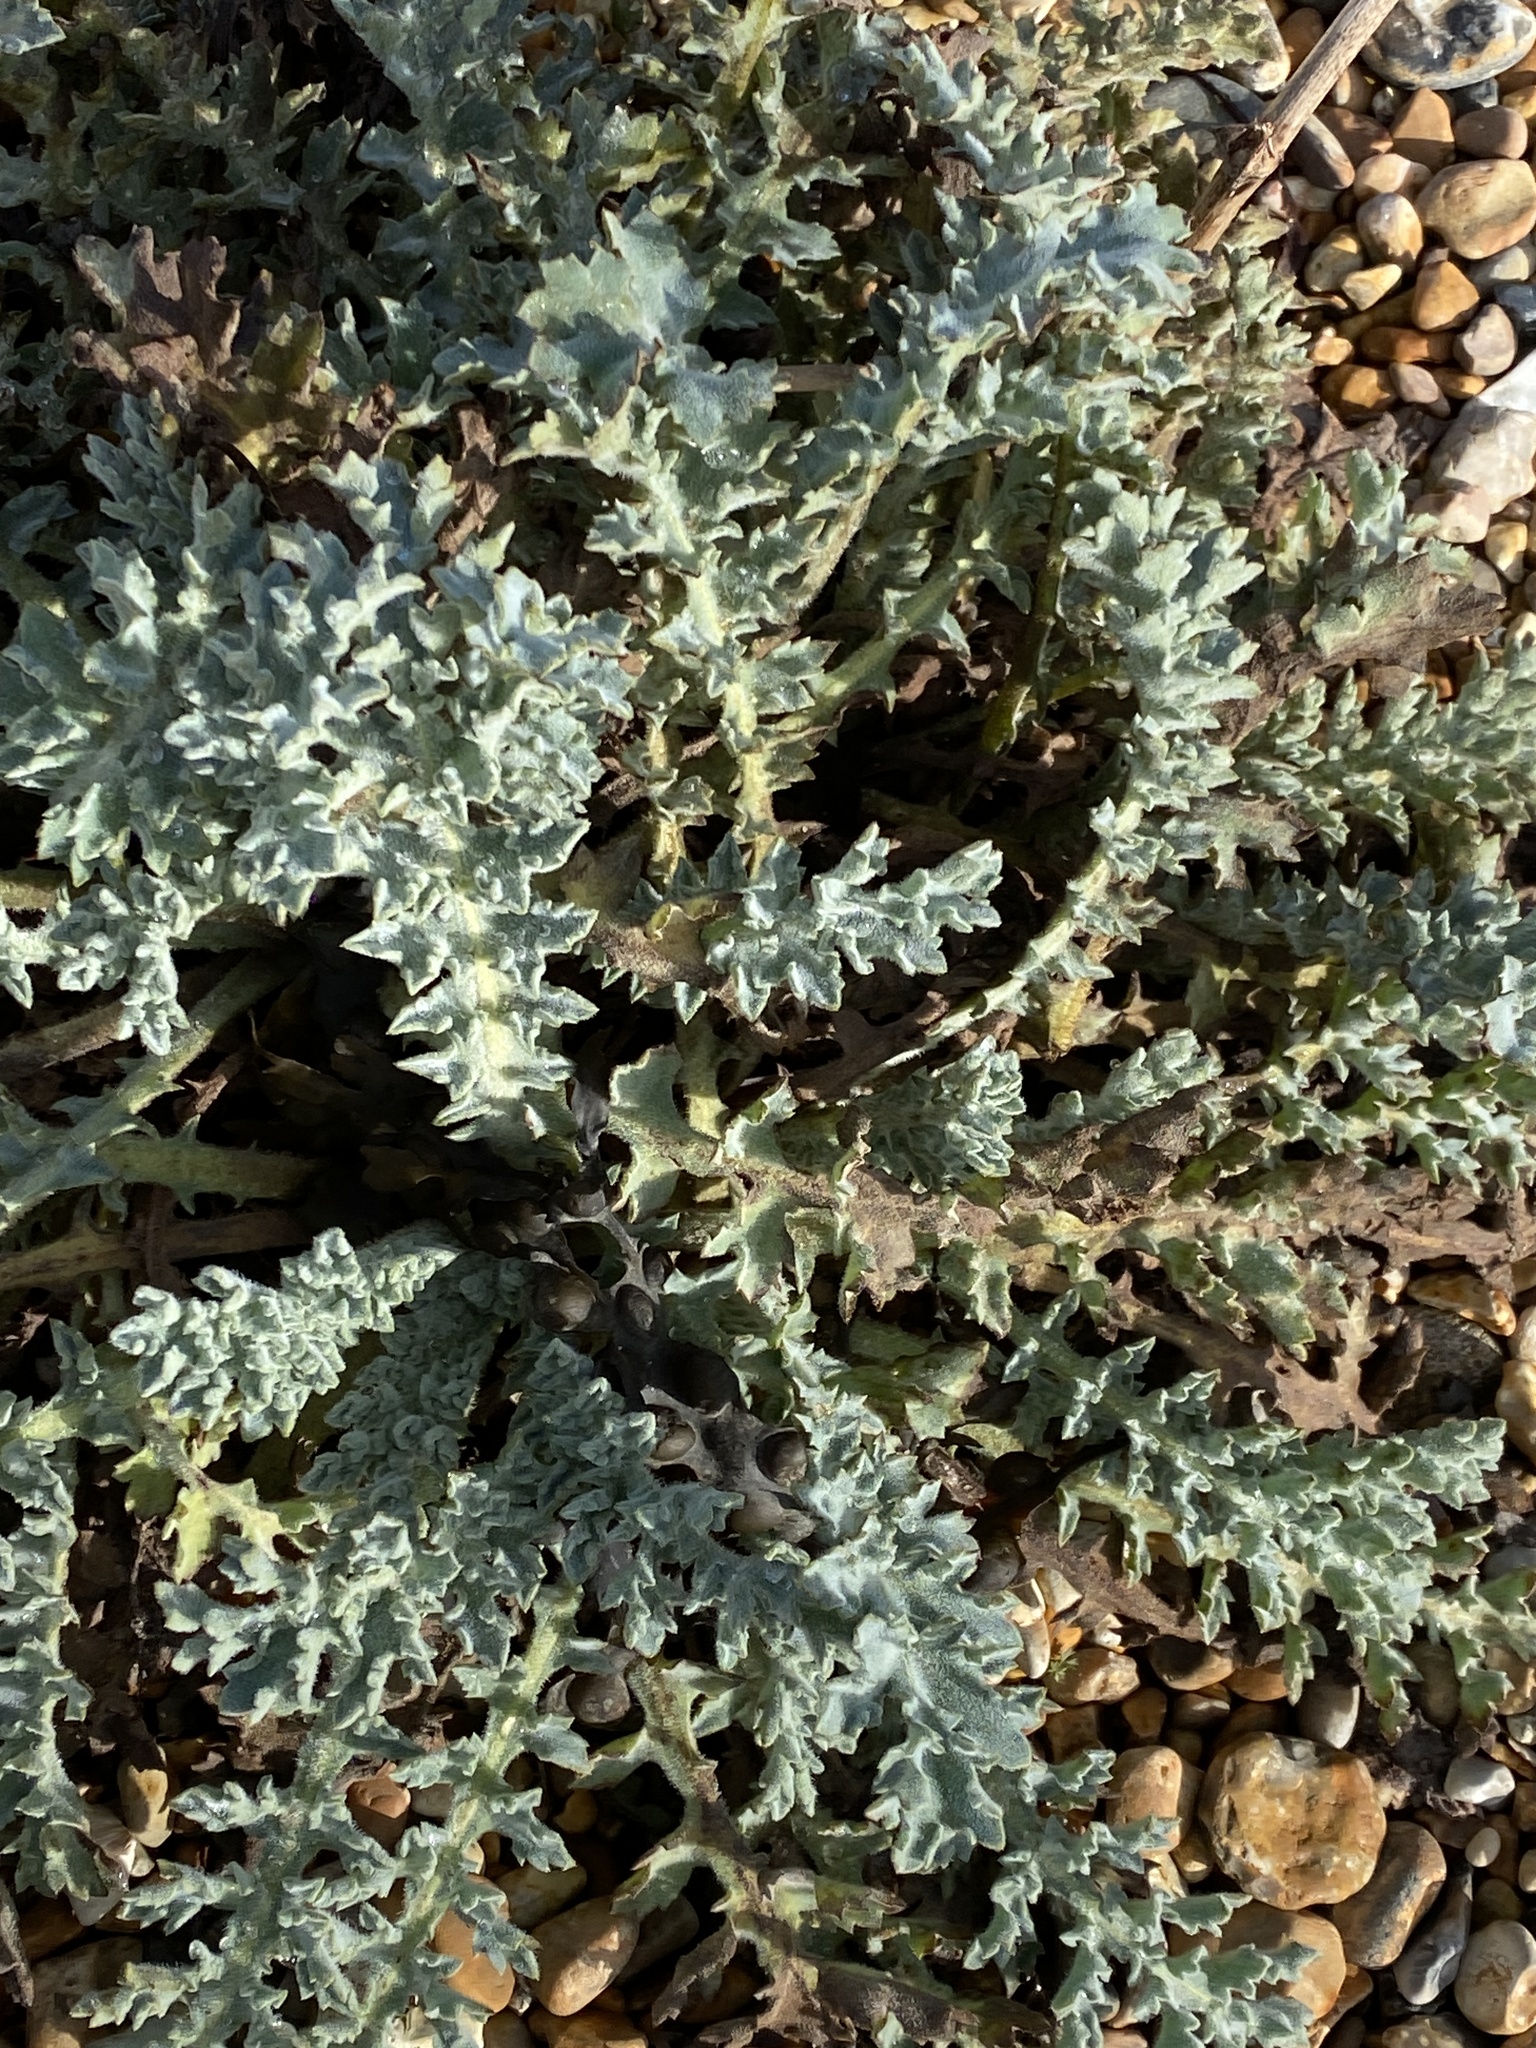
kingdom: Plantae
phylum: Tracheophyta
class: Magnoliopsida
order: Ranunculales
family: Papaveraceae
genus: Glaucium
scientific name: Glaucium flavum
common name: Yellow horned-poppy
